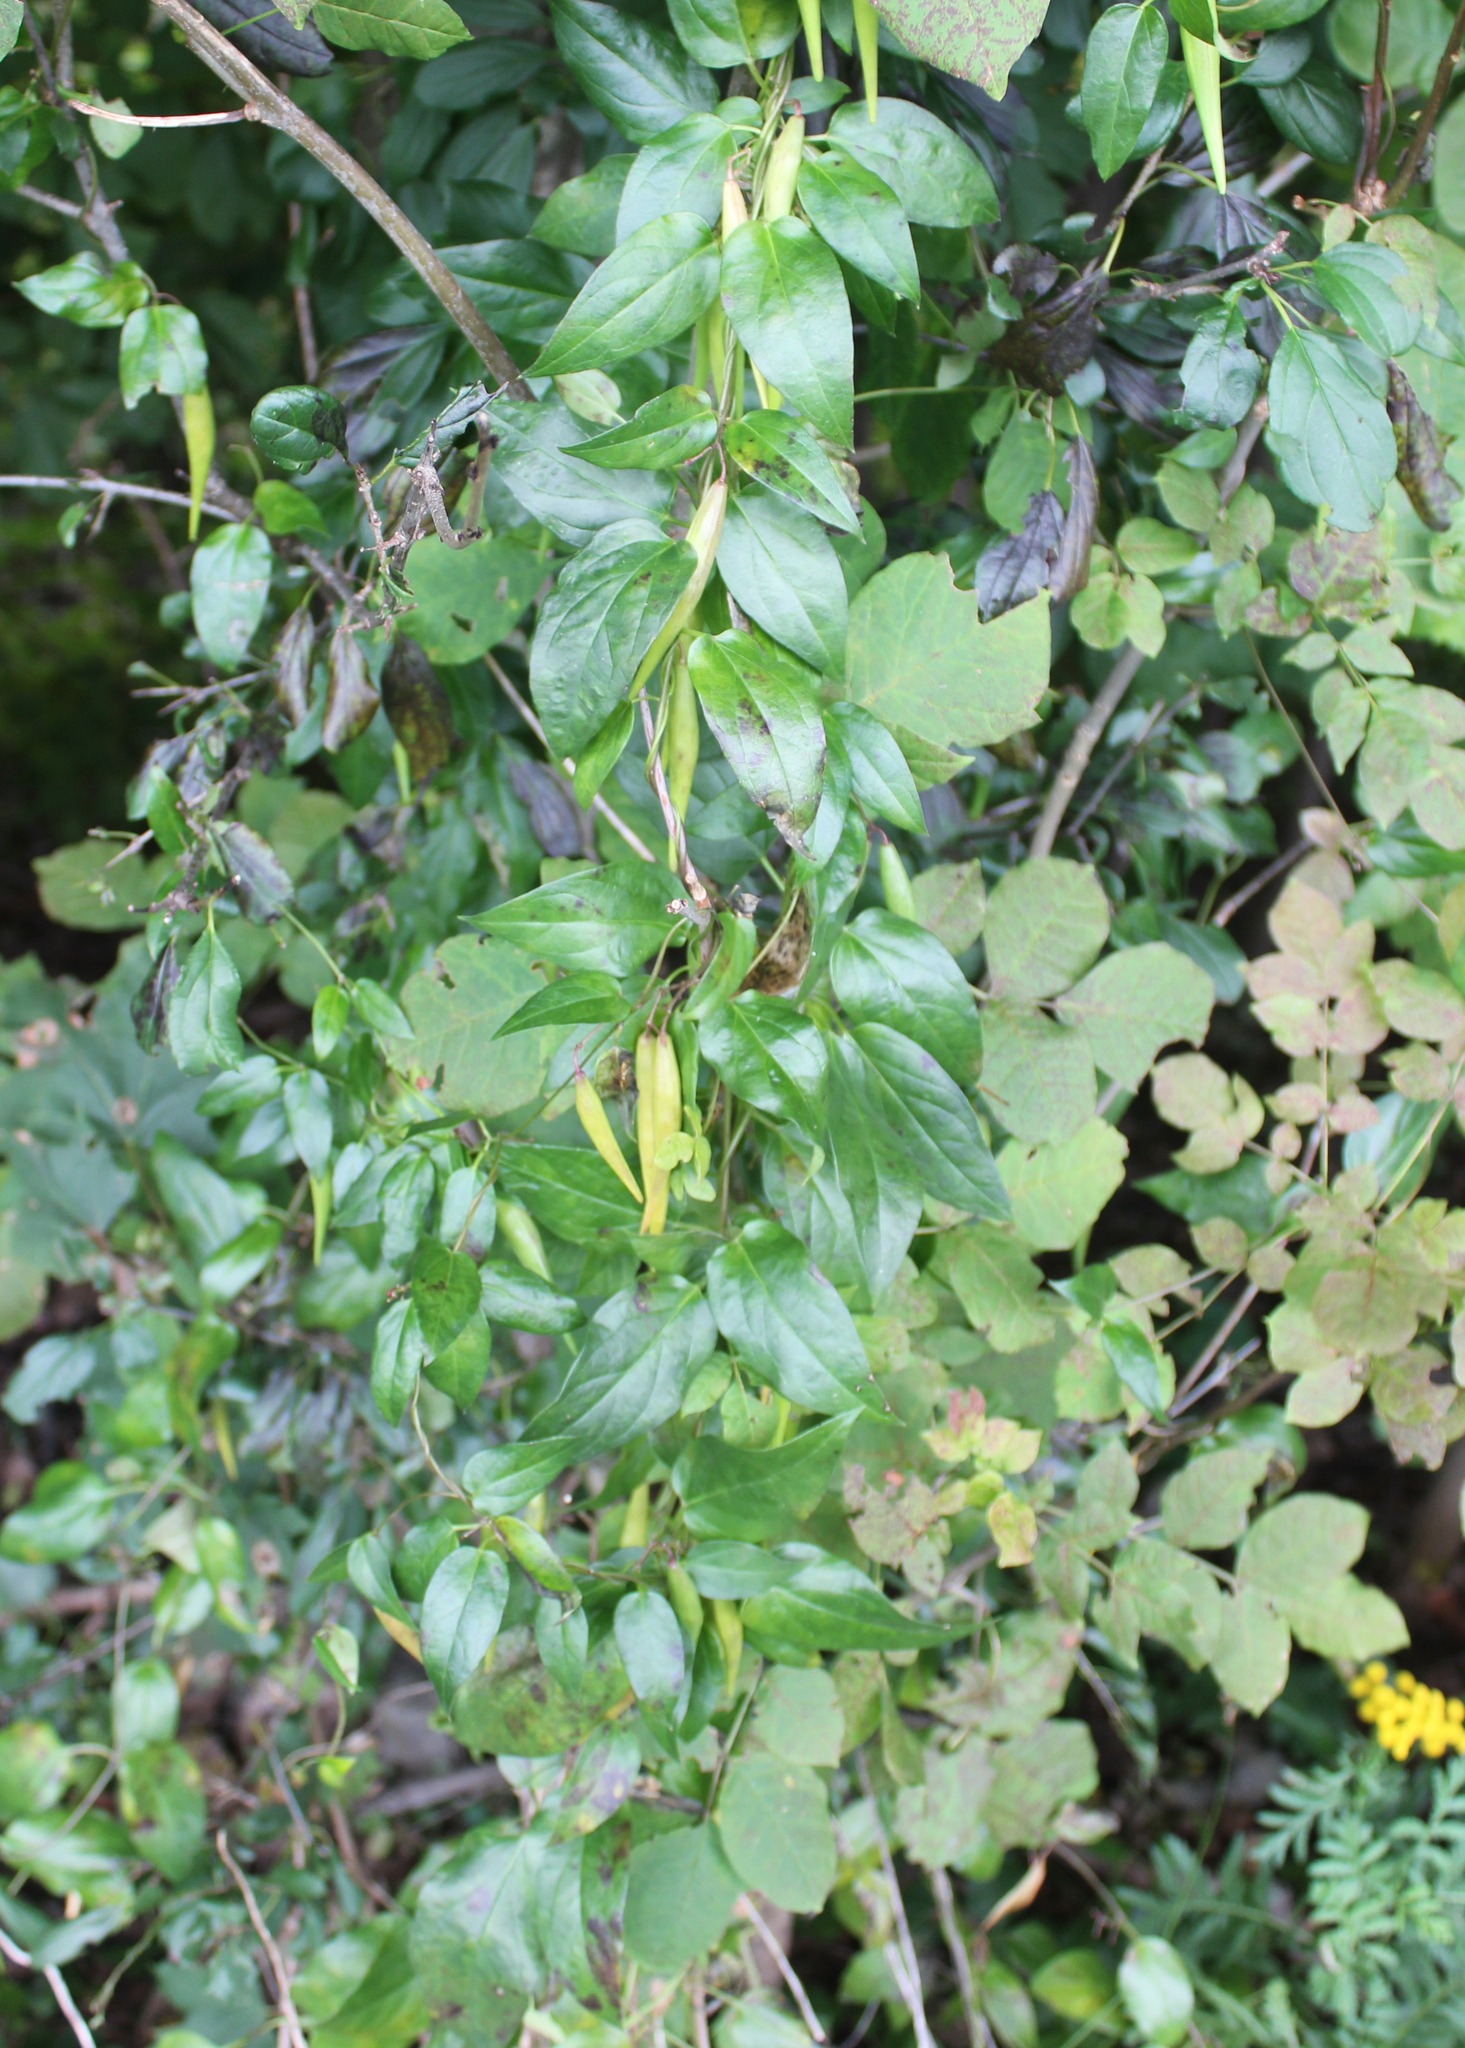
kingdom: Plantae
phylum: Tracheophyta
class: Magnoliopsida
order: Gentianales
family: Apocynaceae
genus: Vincetoxicum
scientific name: Vincetoxicum nigrum
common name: Black swallow-wort
